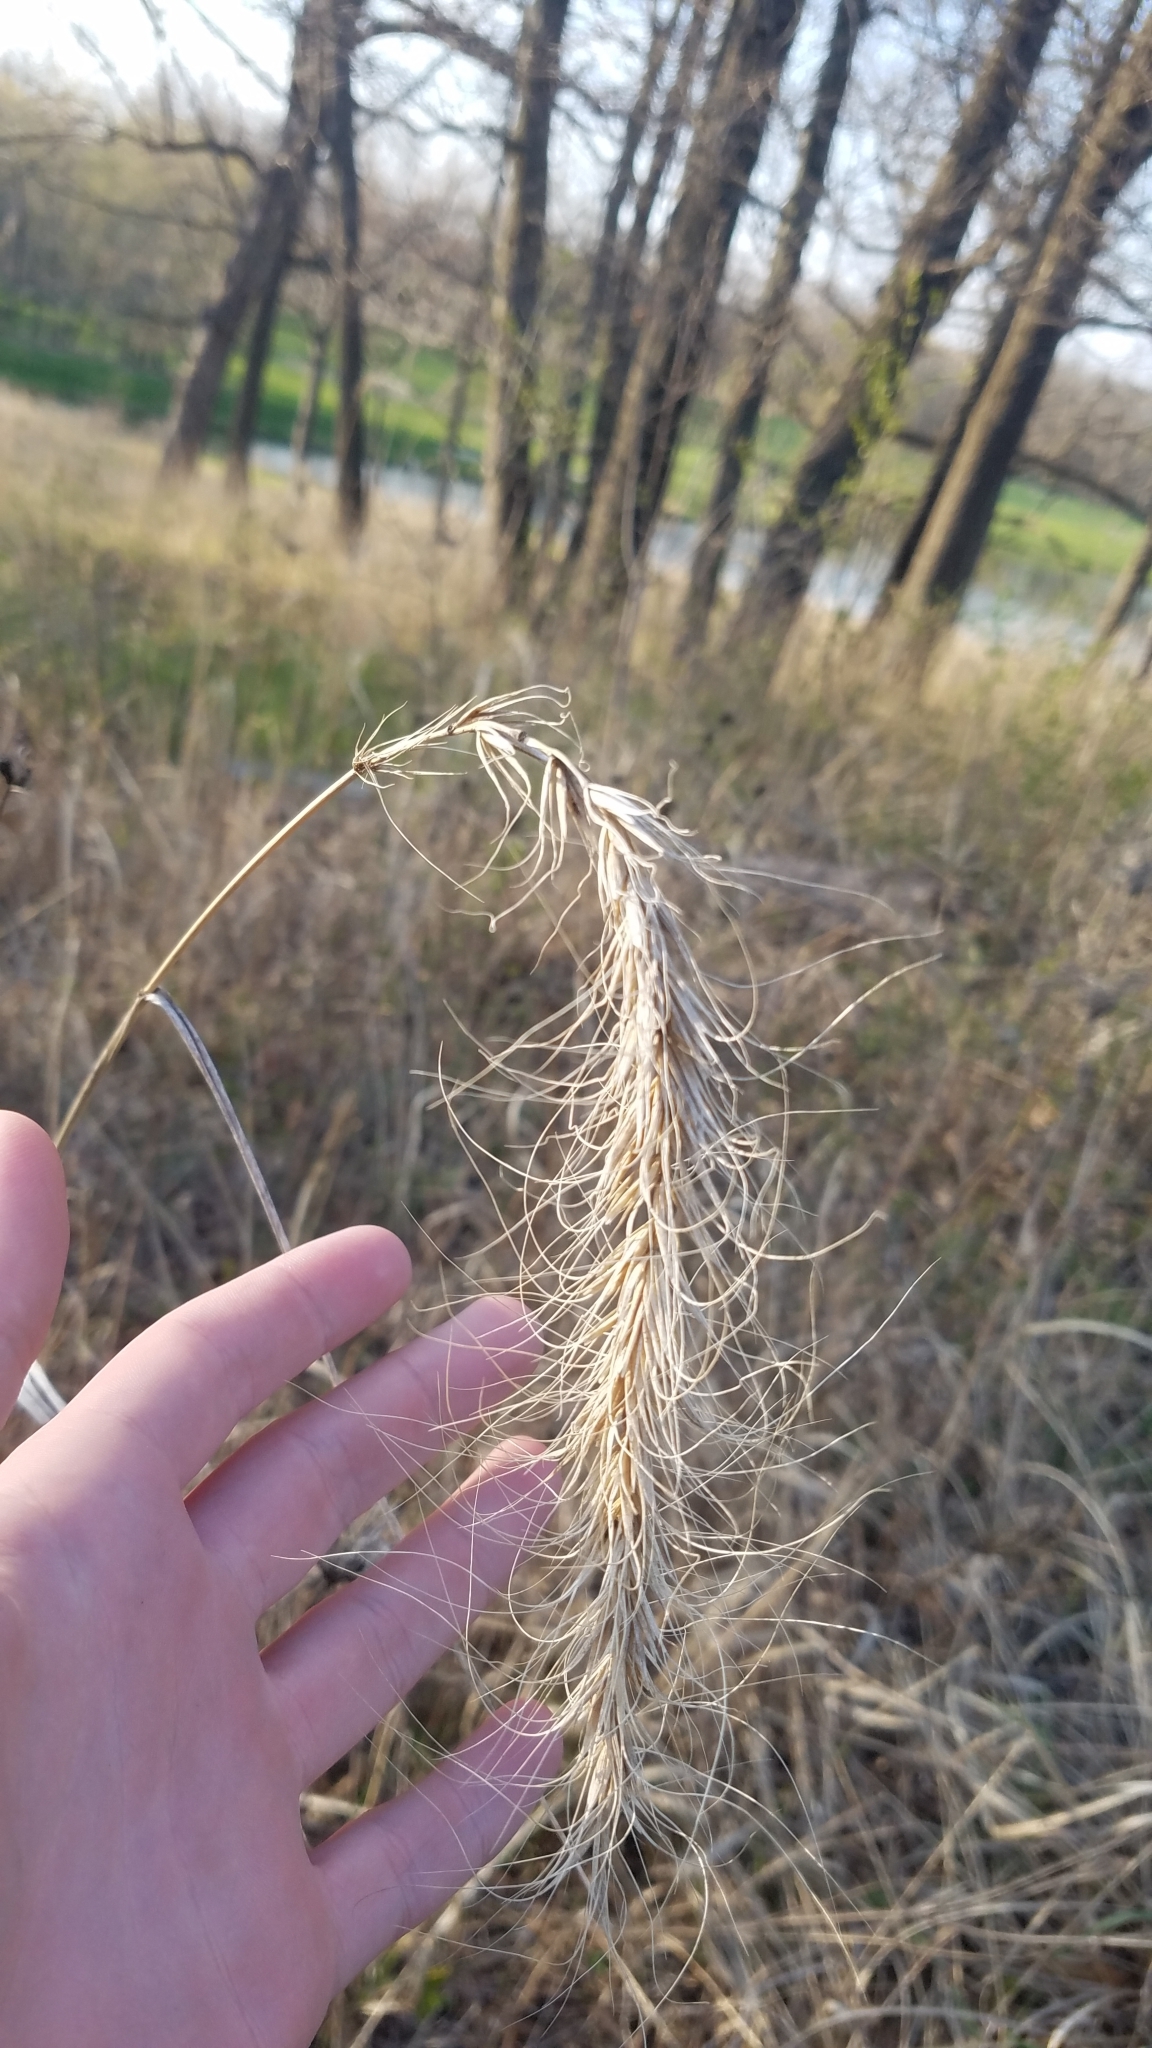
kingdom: Plantae
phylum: Tracheophyta
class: Liliopsida
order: Poales
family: Poaceae
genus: Elymus
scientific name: Elymus canadensis
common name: Canada wild rye
